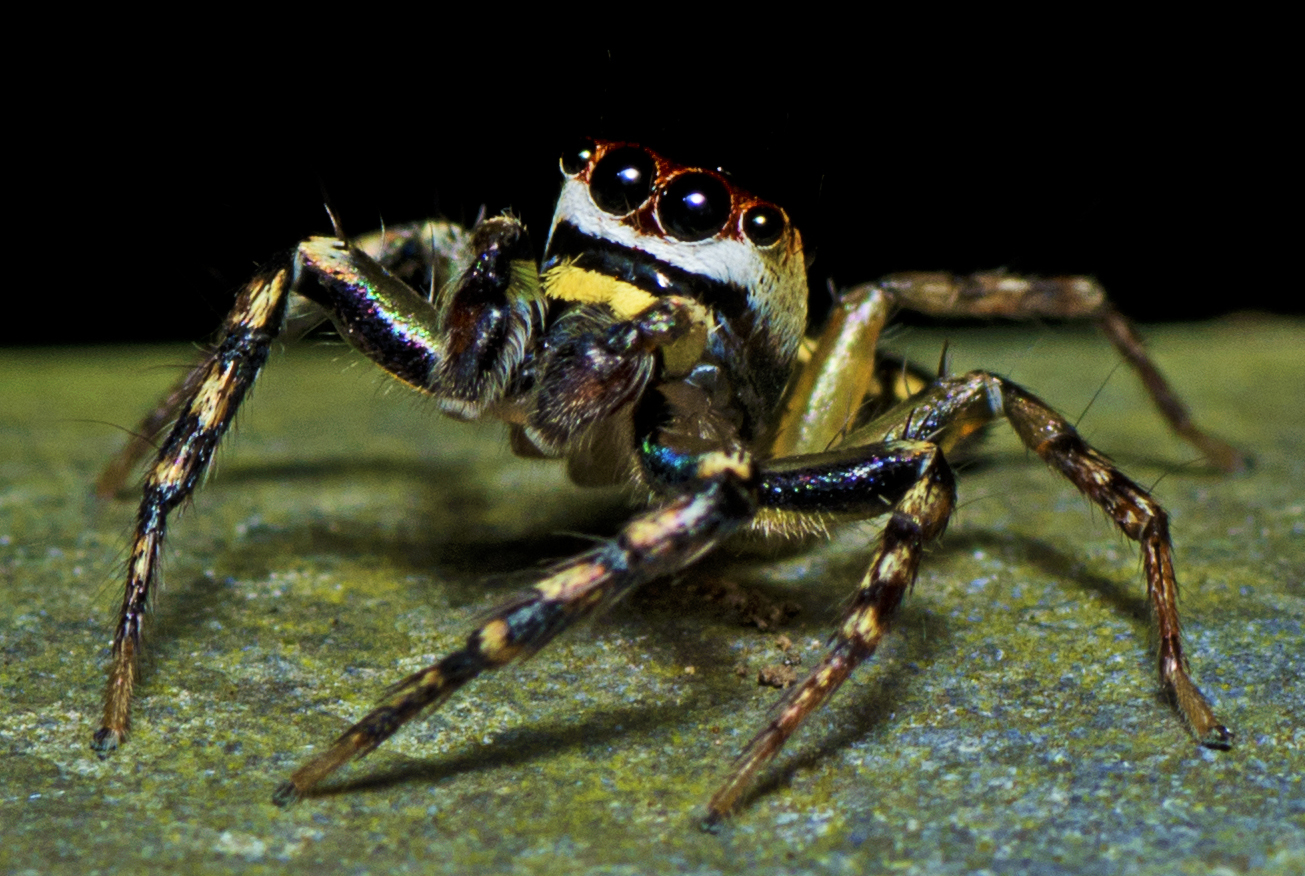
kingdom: Animalia
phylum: Arthropoda
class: Arachnida
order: Araneae
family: Salticidae
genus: Cytaea
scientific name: Cytaea plumbeiventris
